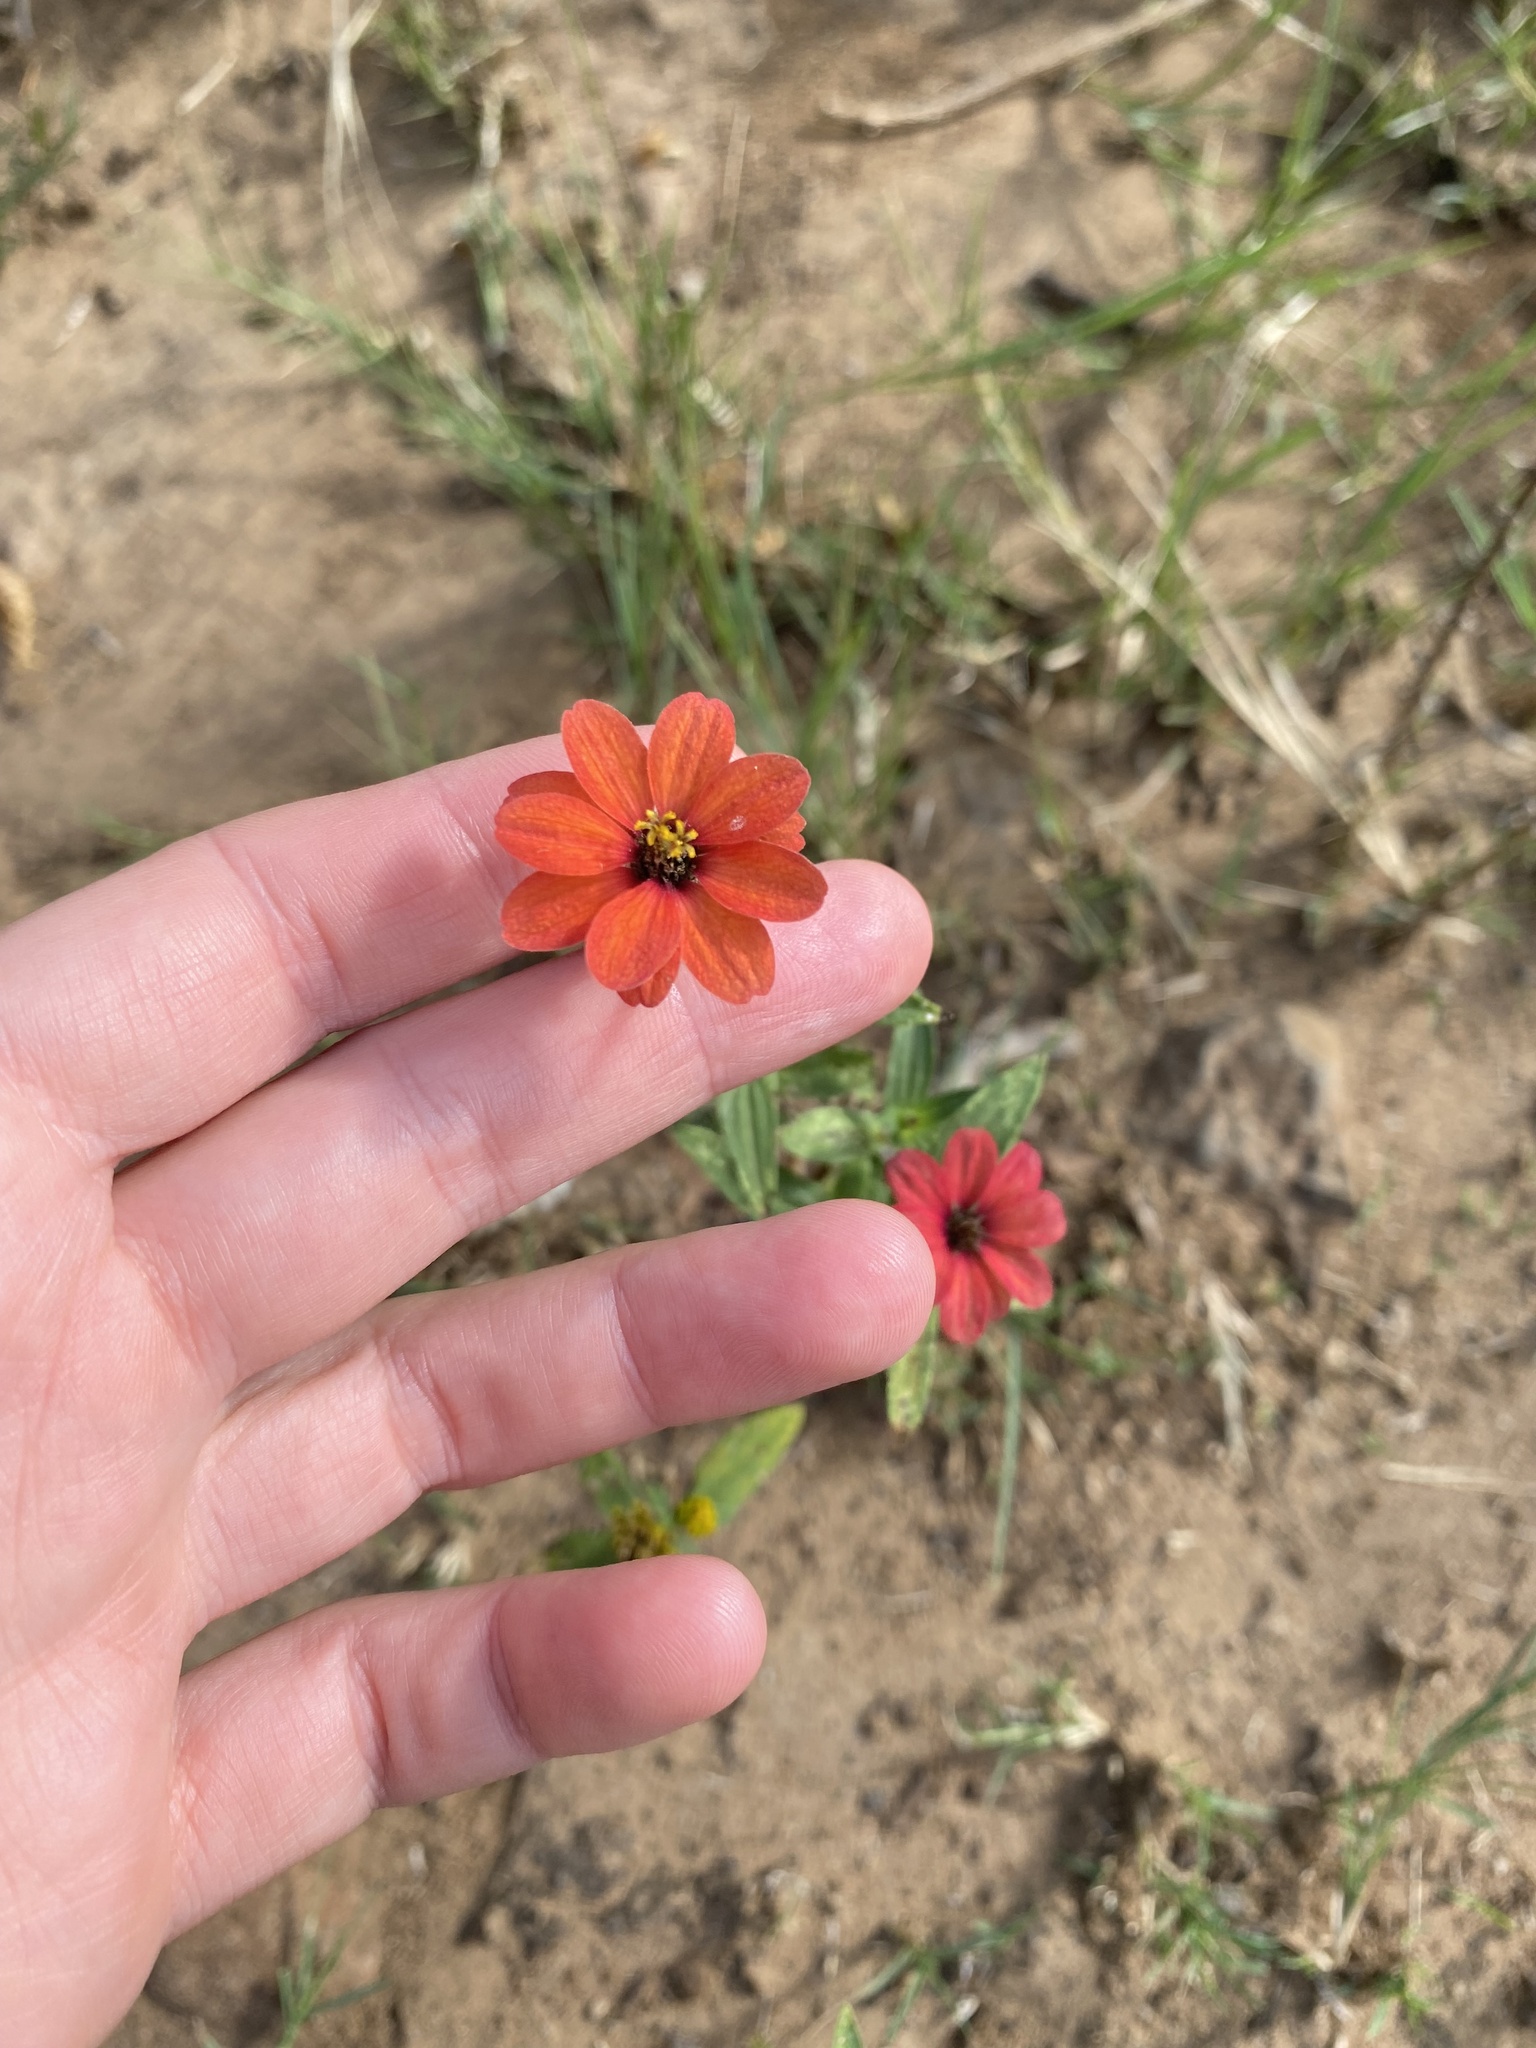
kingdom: Plantae
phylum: Tracheophyta
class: Magnoliopsida
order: Asterales
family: Asteraceae
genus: Zinnia
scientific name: Zinnia peruviana
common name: Peruvian zinnia
